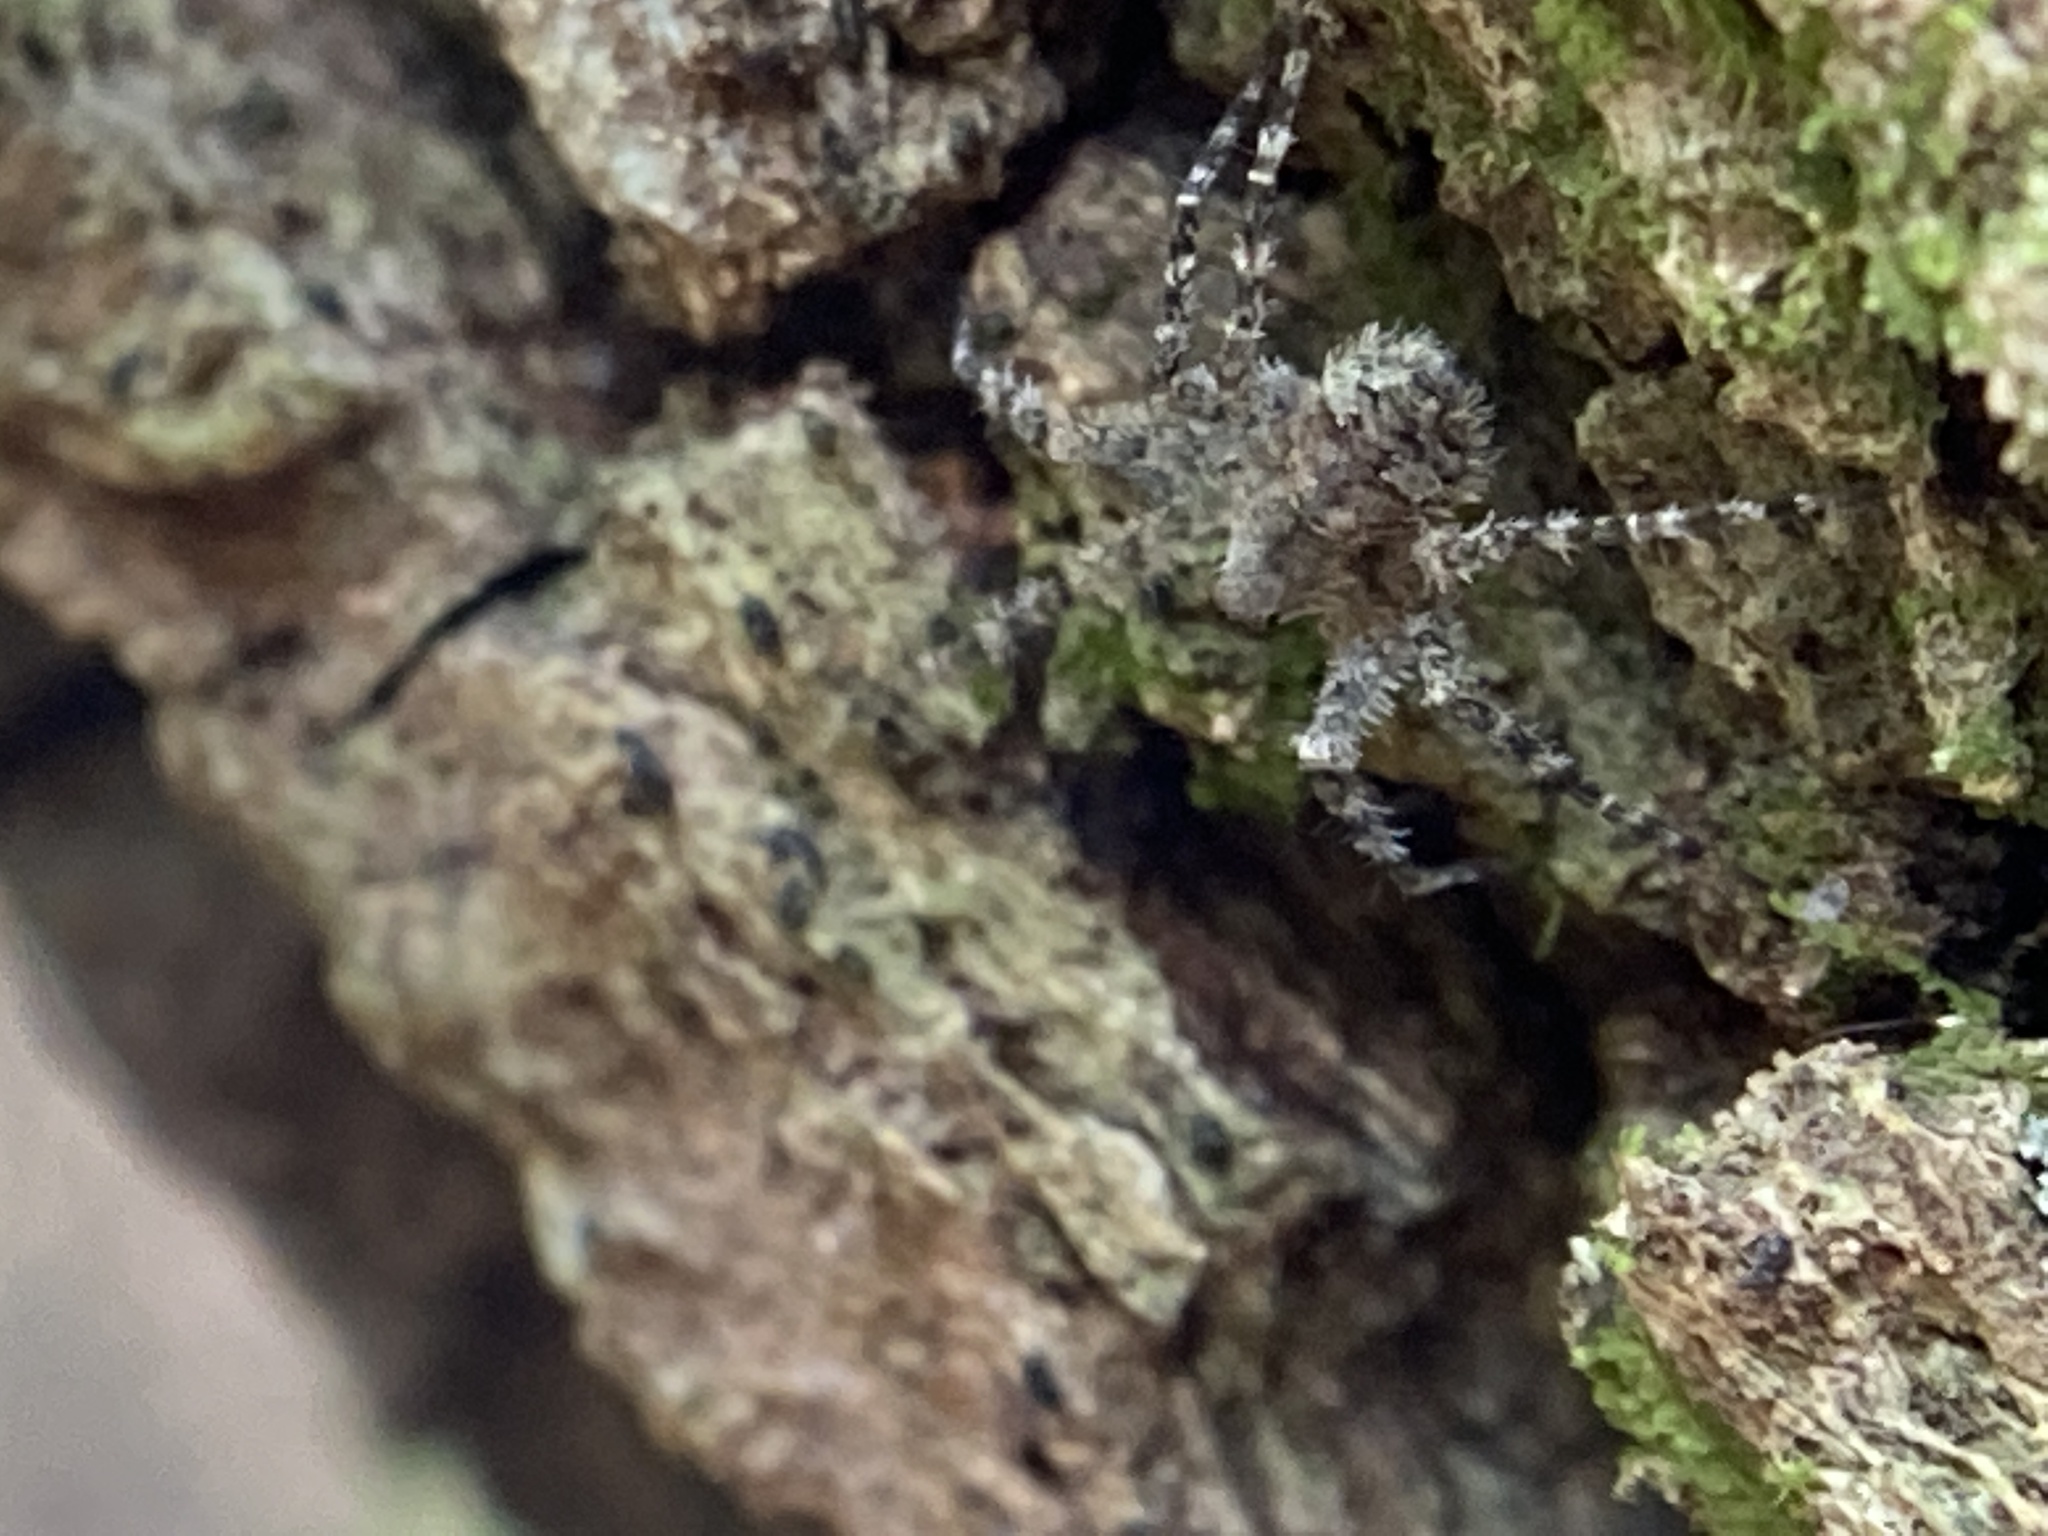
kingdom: Animalia
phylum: Arthropoda
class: Arachnida
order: Araneae
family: Pisauridae
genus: Dolomedes
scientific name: Dolomedes albineus
